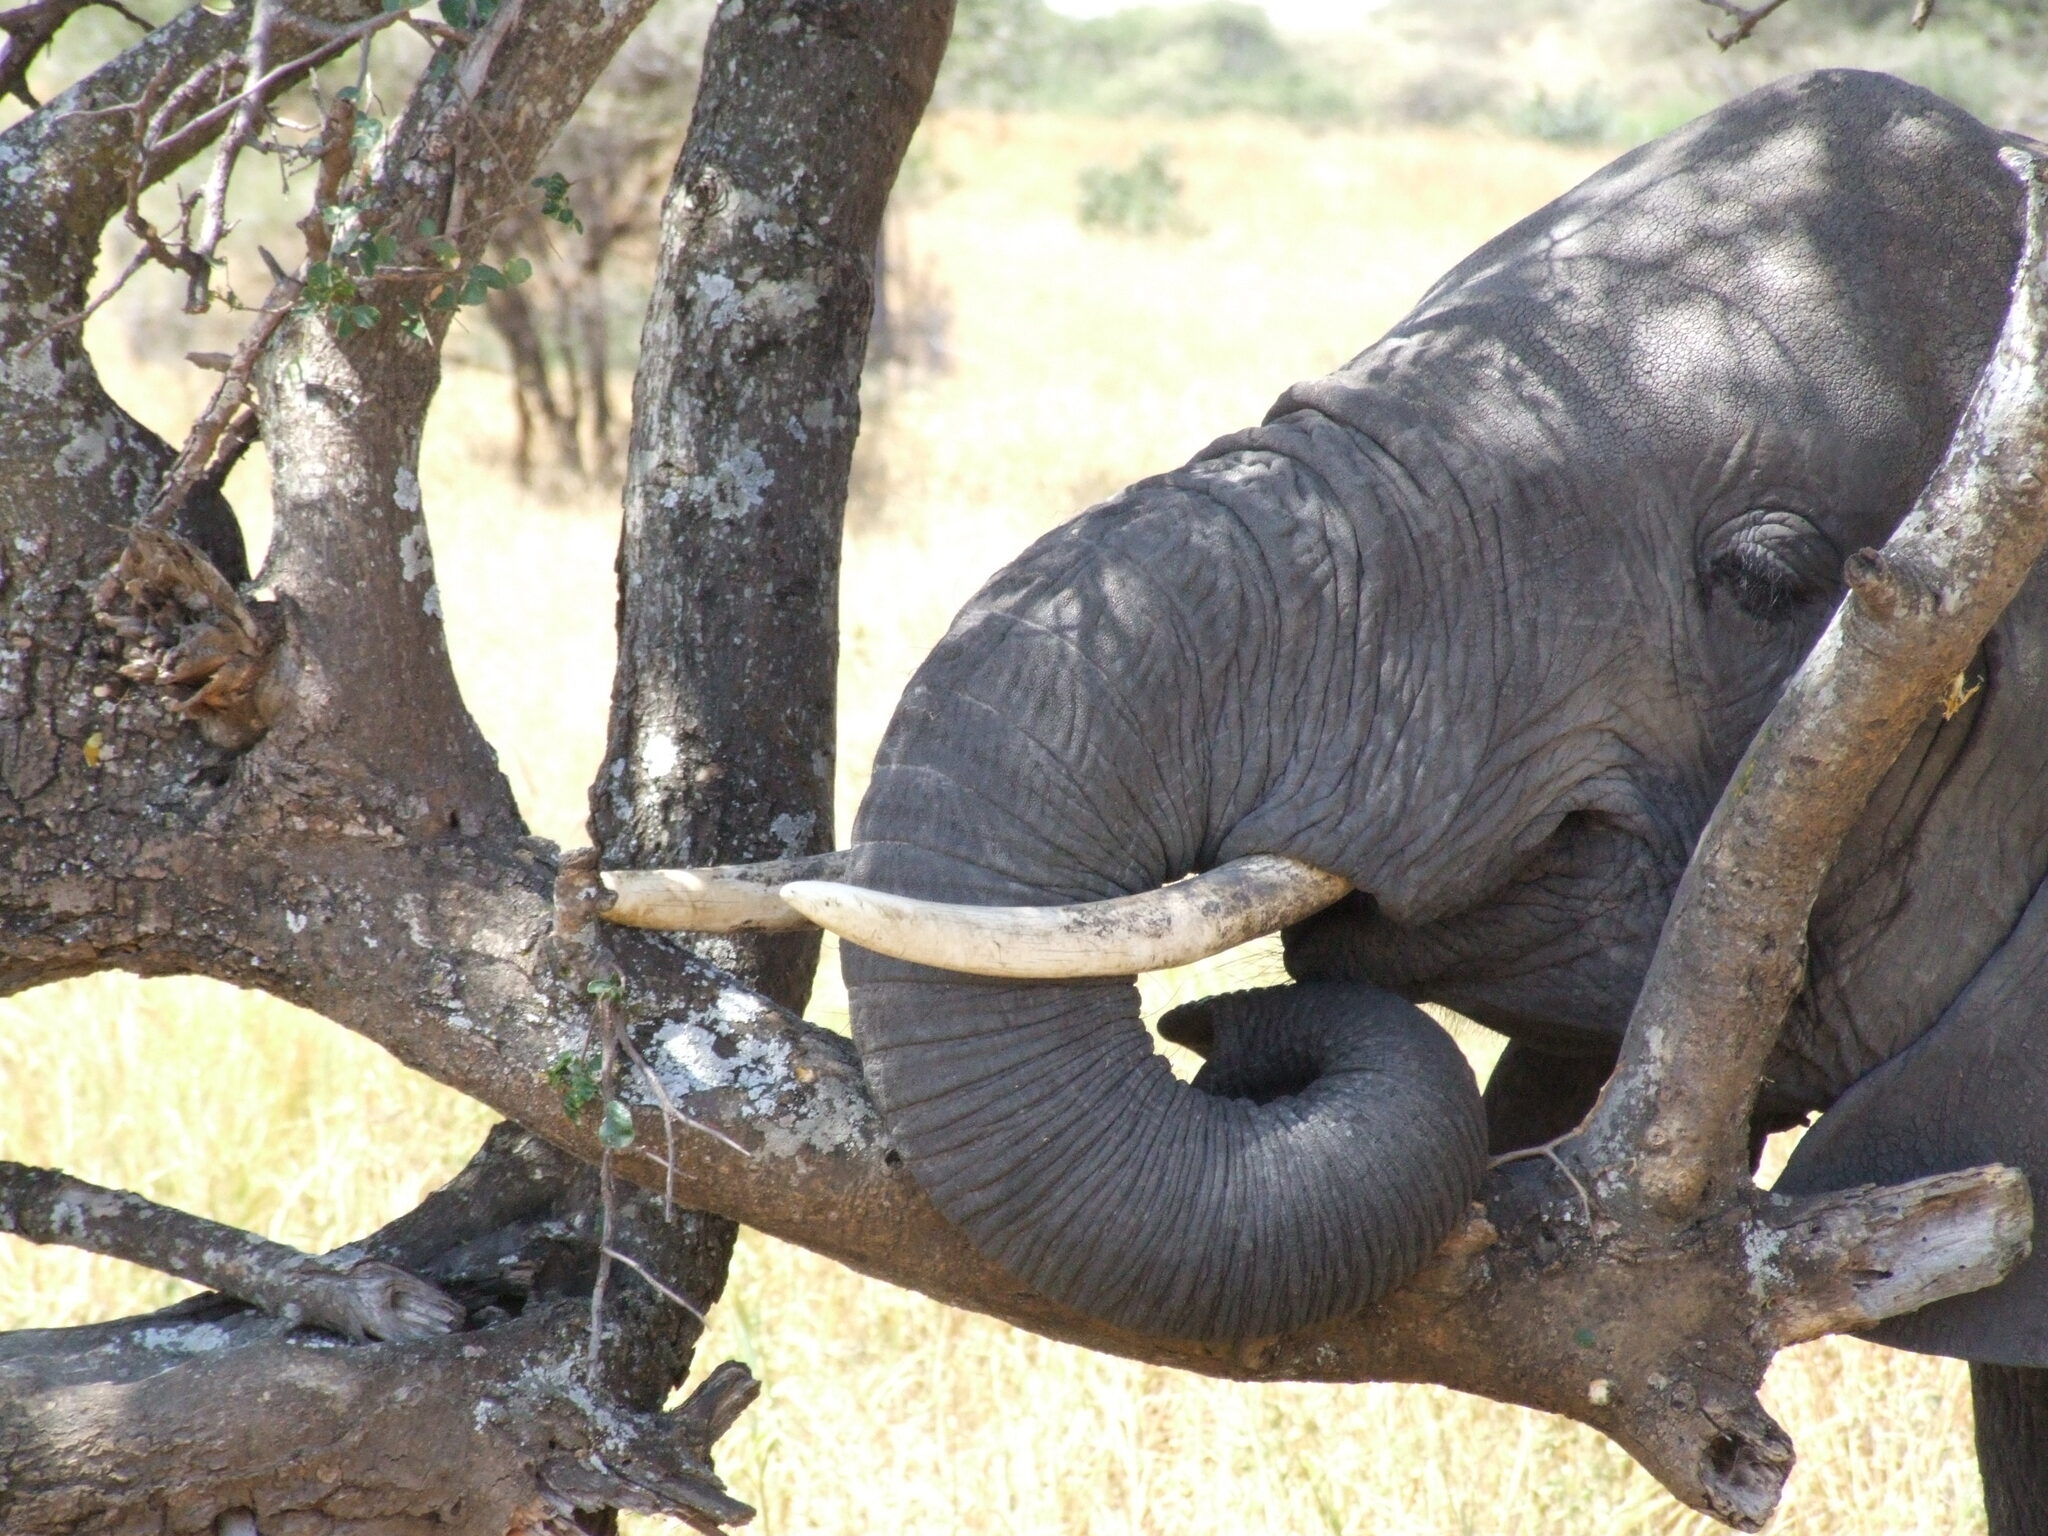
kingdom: Animalia
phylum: Chordata
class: Mammalia
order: Proboscidea
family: Elephantidae
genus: Loxodonta
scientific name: Loxodonta africana
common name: African elephant
